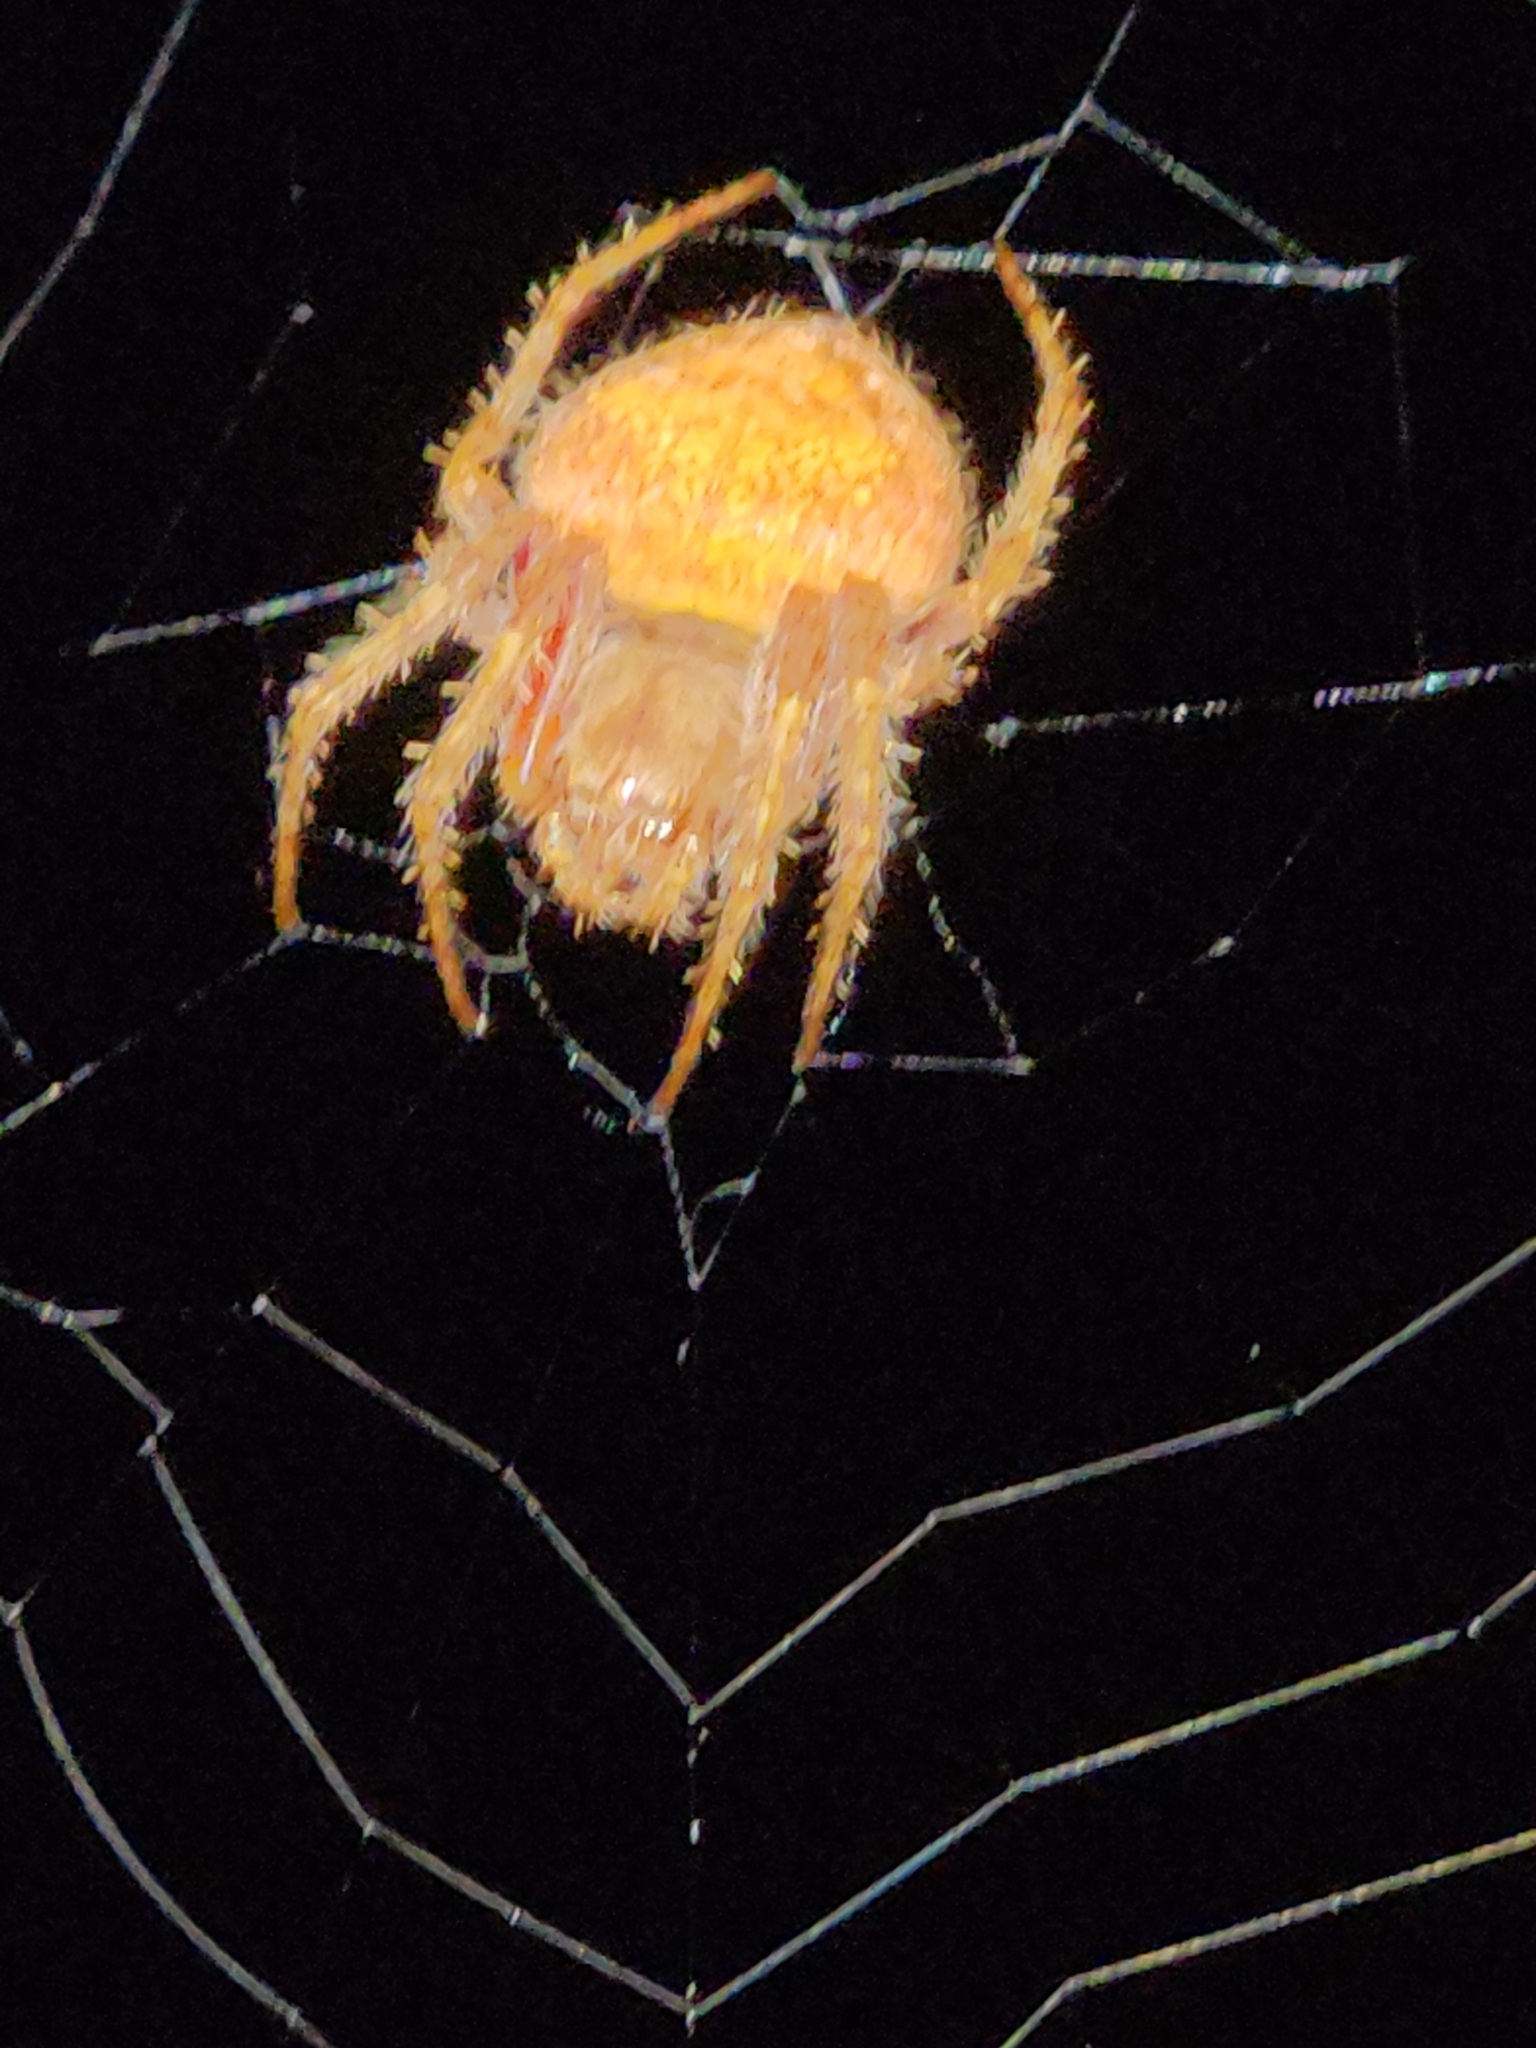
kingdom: Animalia
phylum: Arthropoda
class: Arachnida
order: Araneae
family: Araneidae
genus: Eriophora
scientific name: Eriophora edax
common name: Orb weavers
